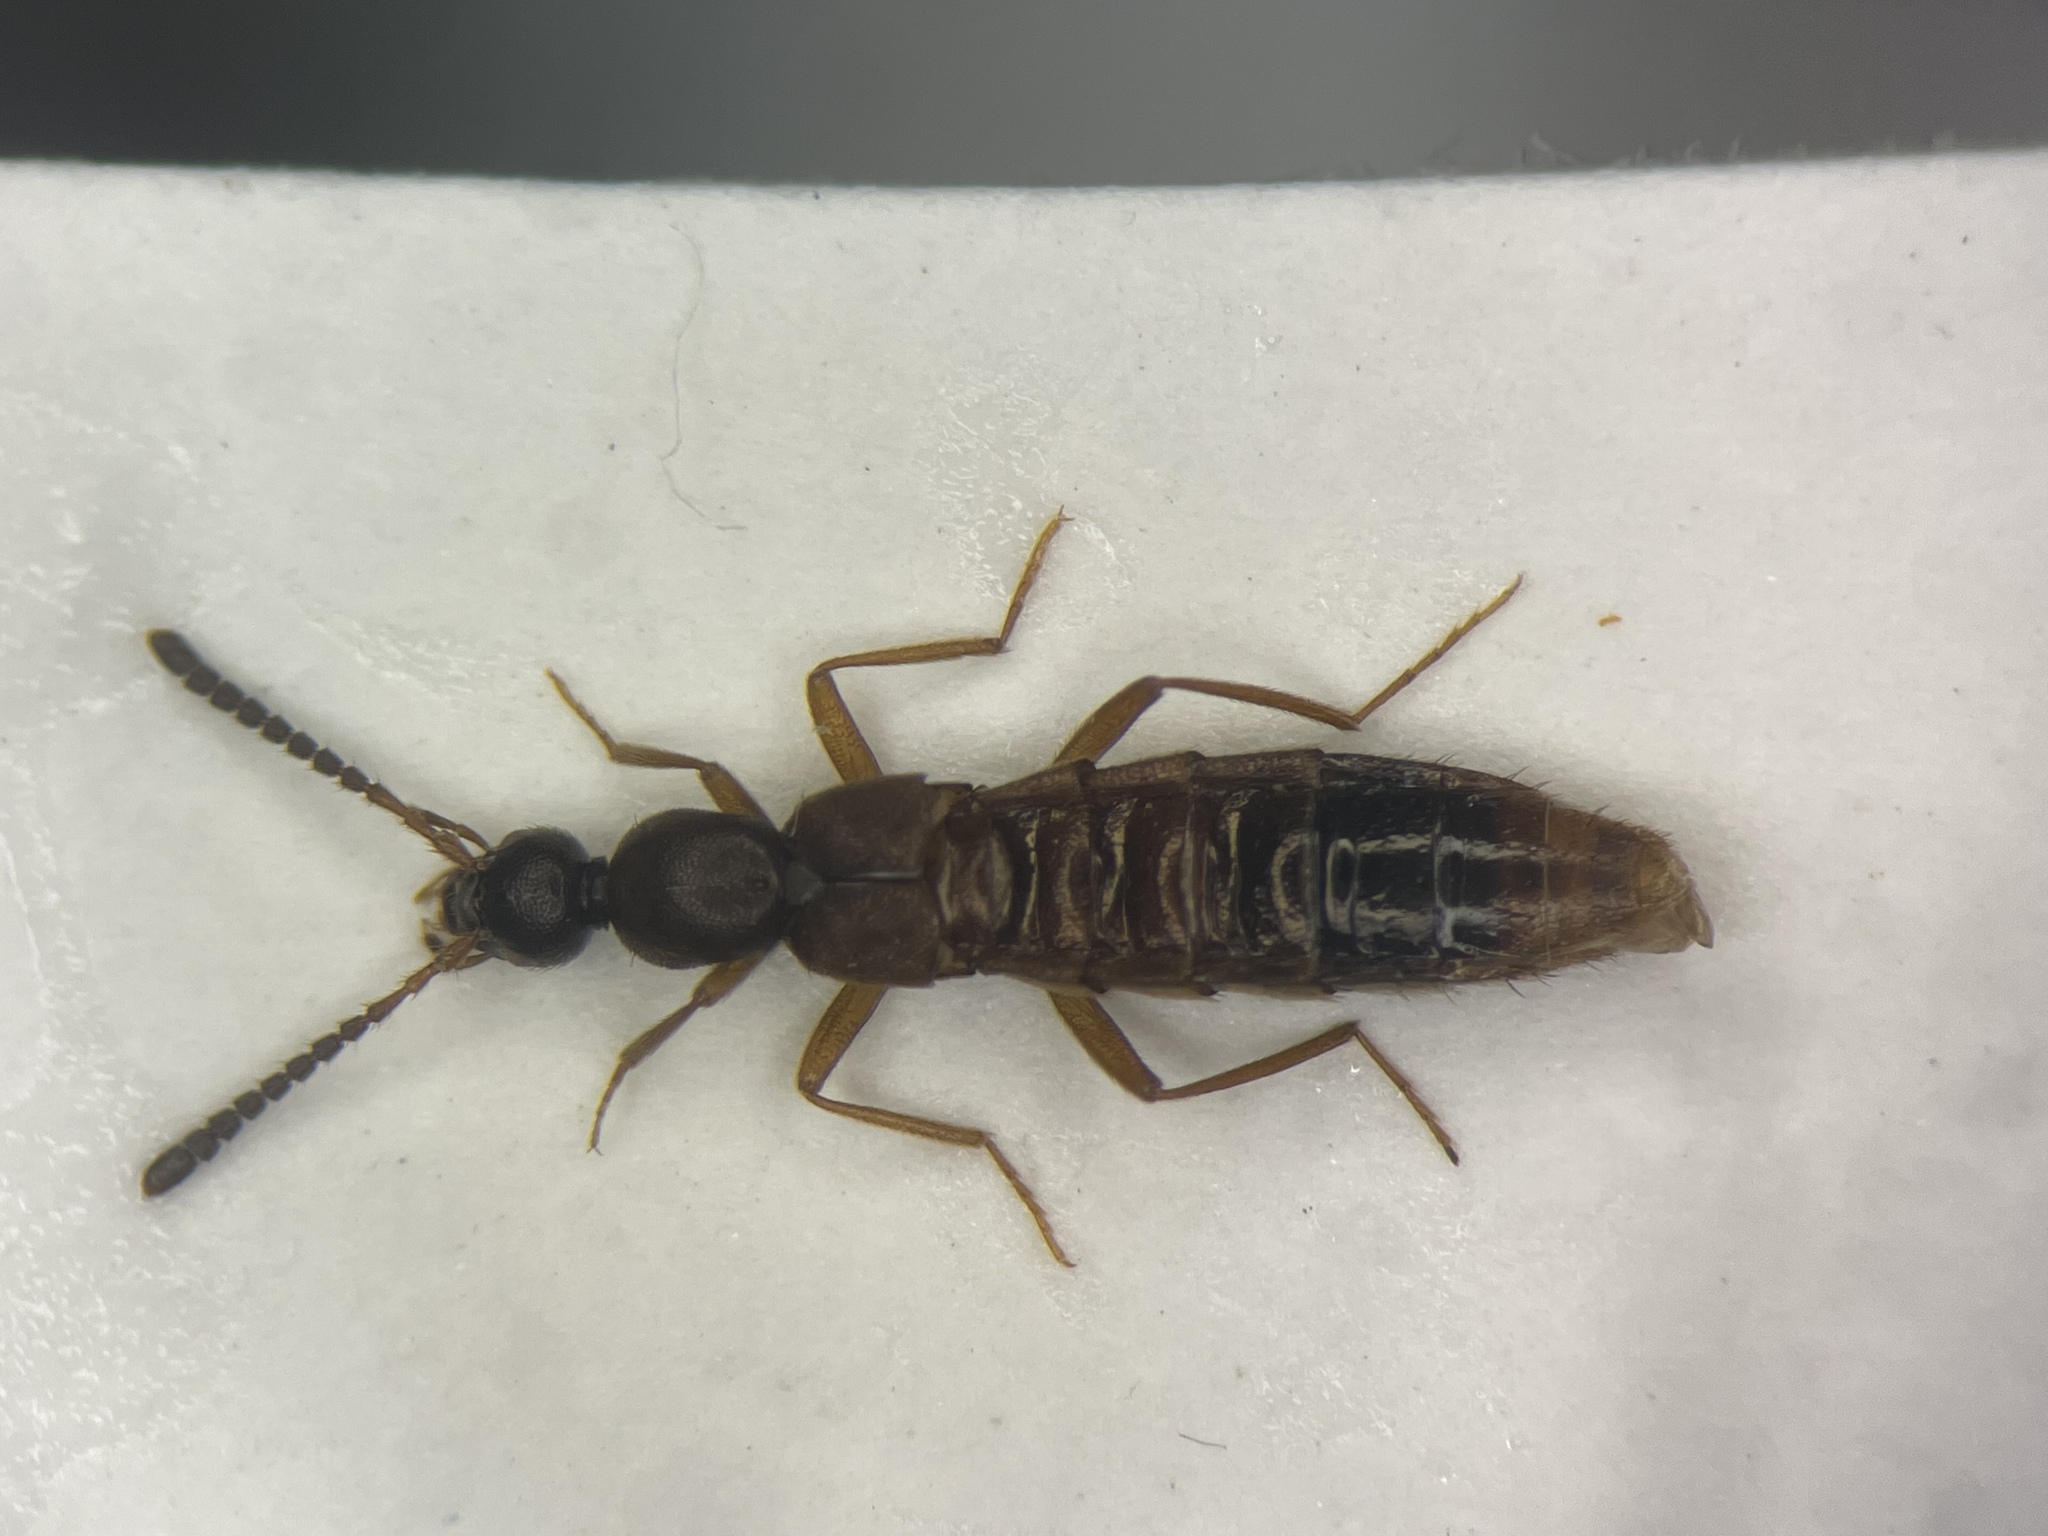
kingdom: Animalia
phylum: Arthropoda
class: Insecta
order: Coleoptera
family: Staphylinidae
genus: Drusilla
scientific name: Drusilla canaliculata
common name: Rove beetle
